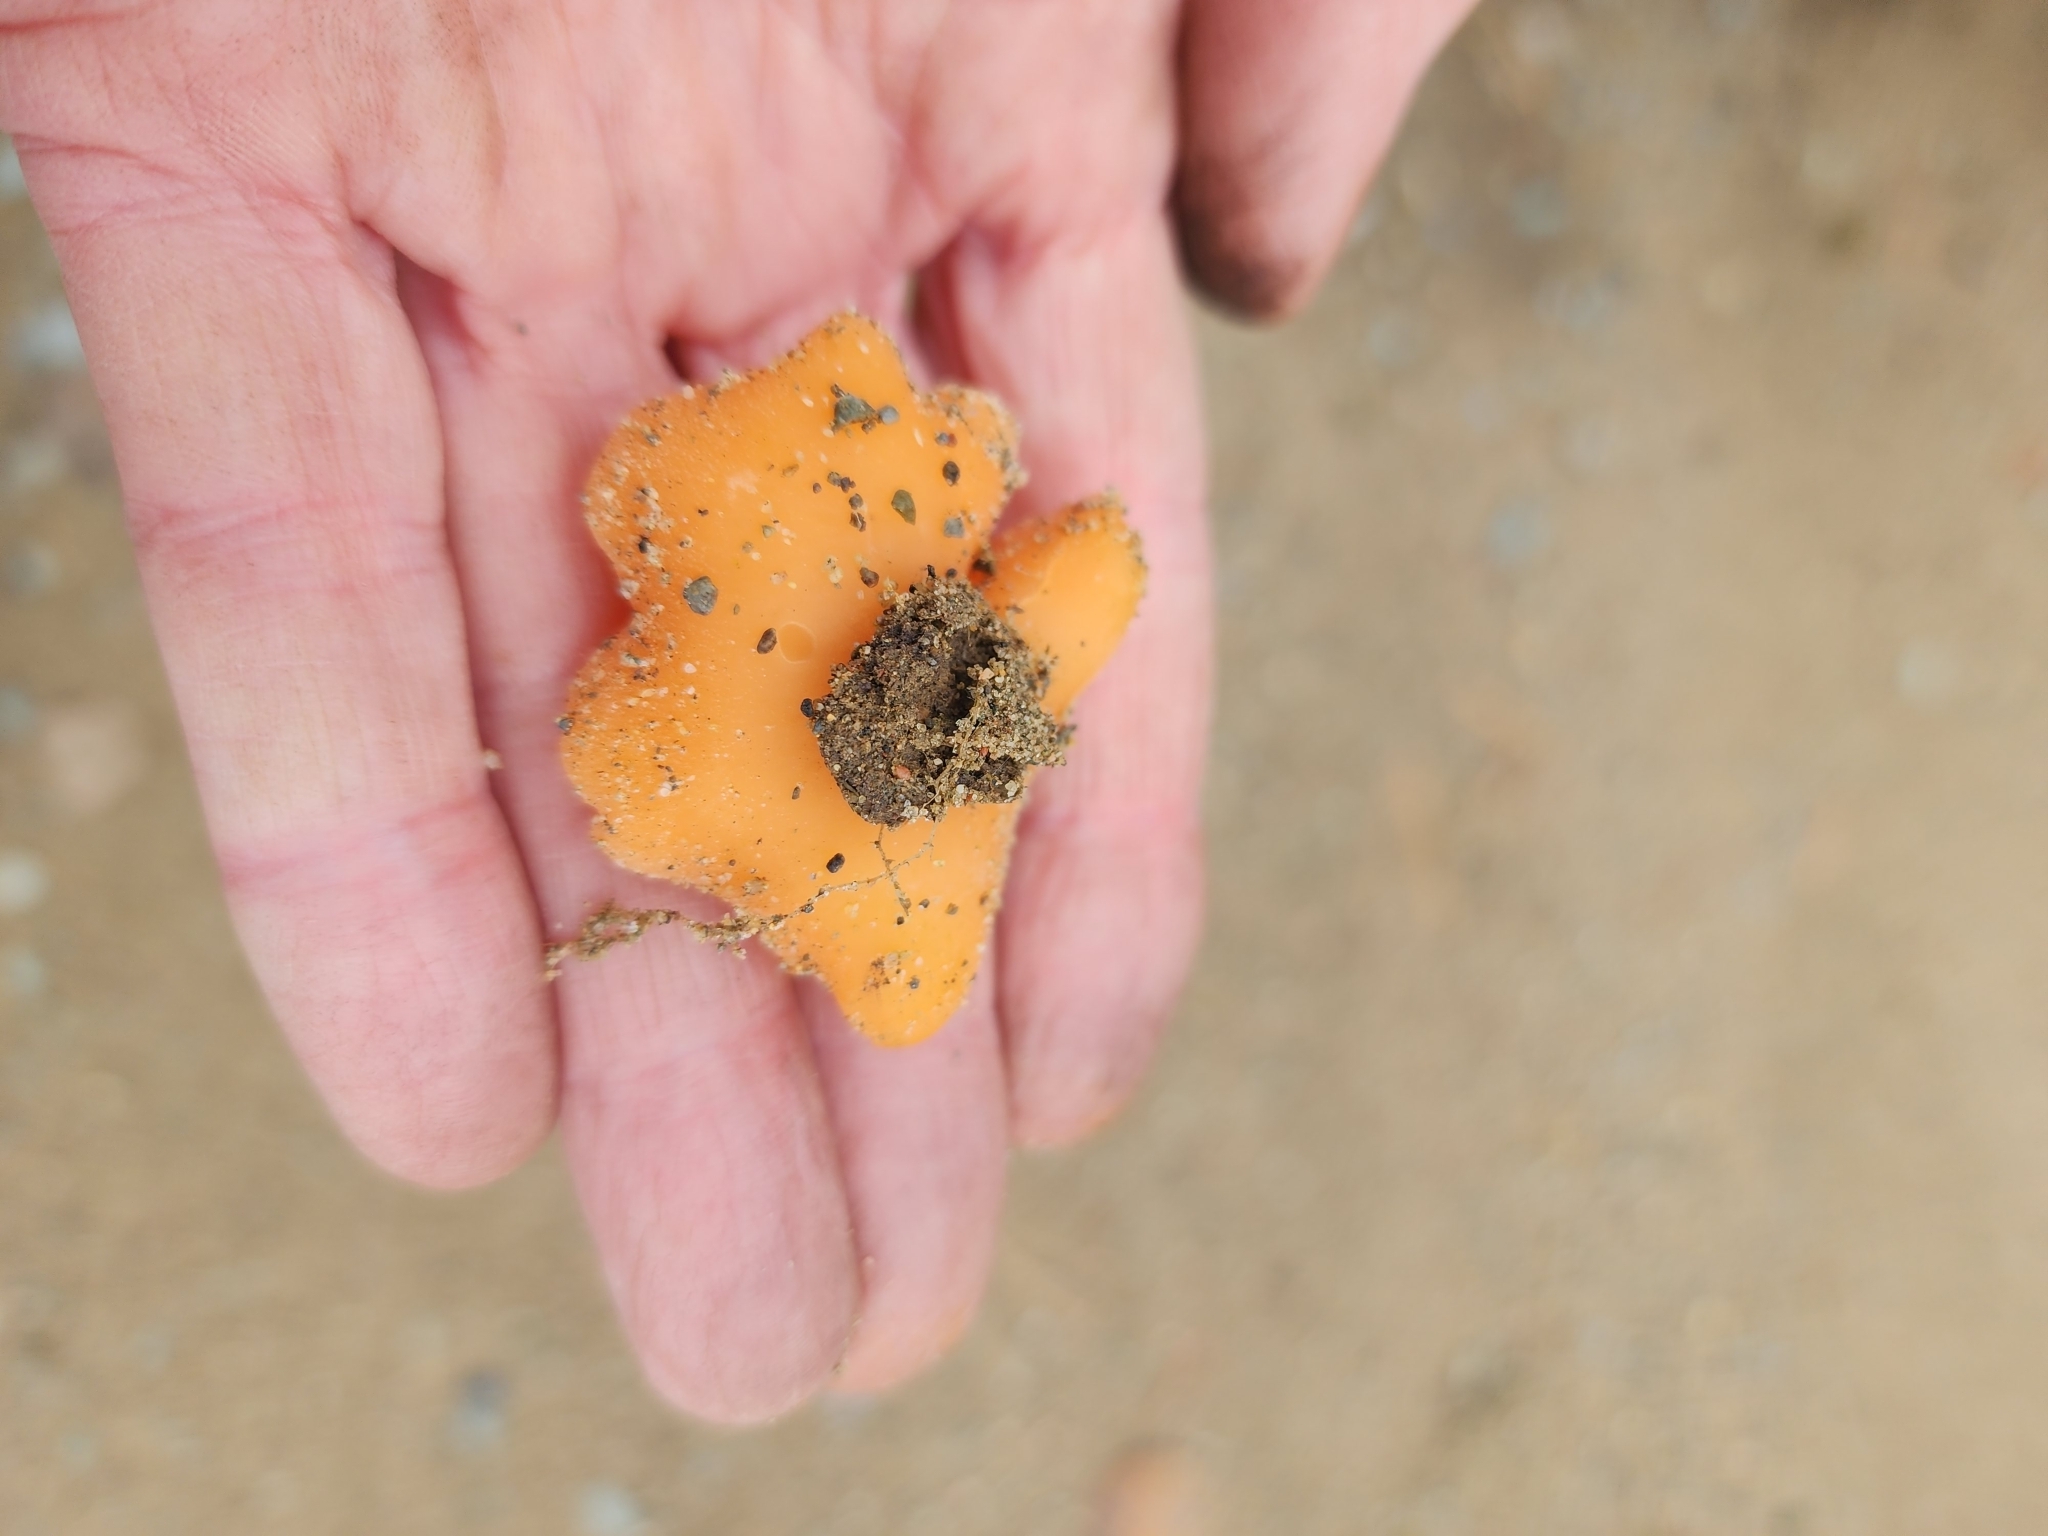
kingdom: Fungi
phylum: Ascomycota
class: Pezizomycetes
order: Pezizales
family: Pyronemataceae
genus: Aleuria
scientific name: Aleuria aurantia
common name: Orange peel fungus
